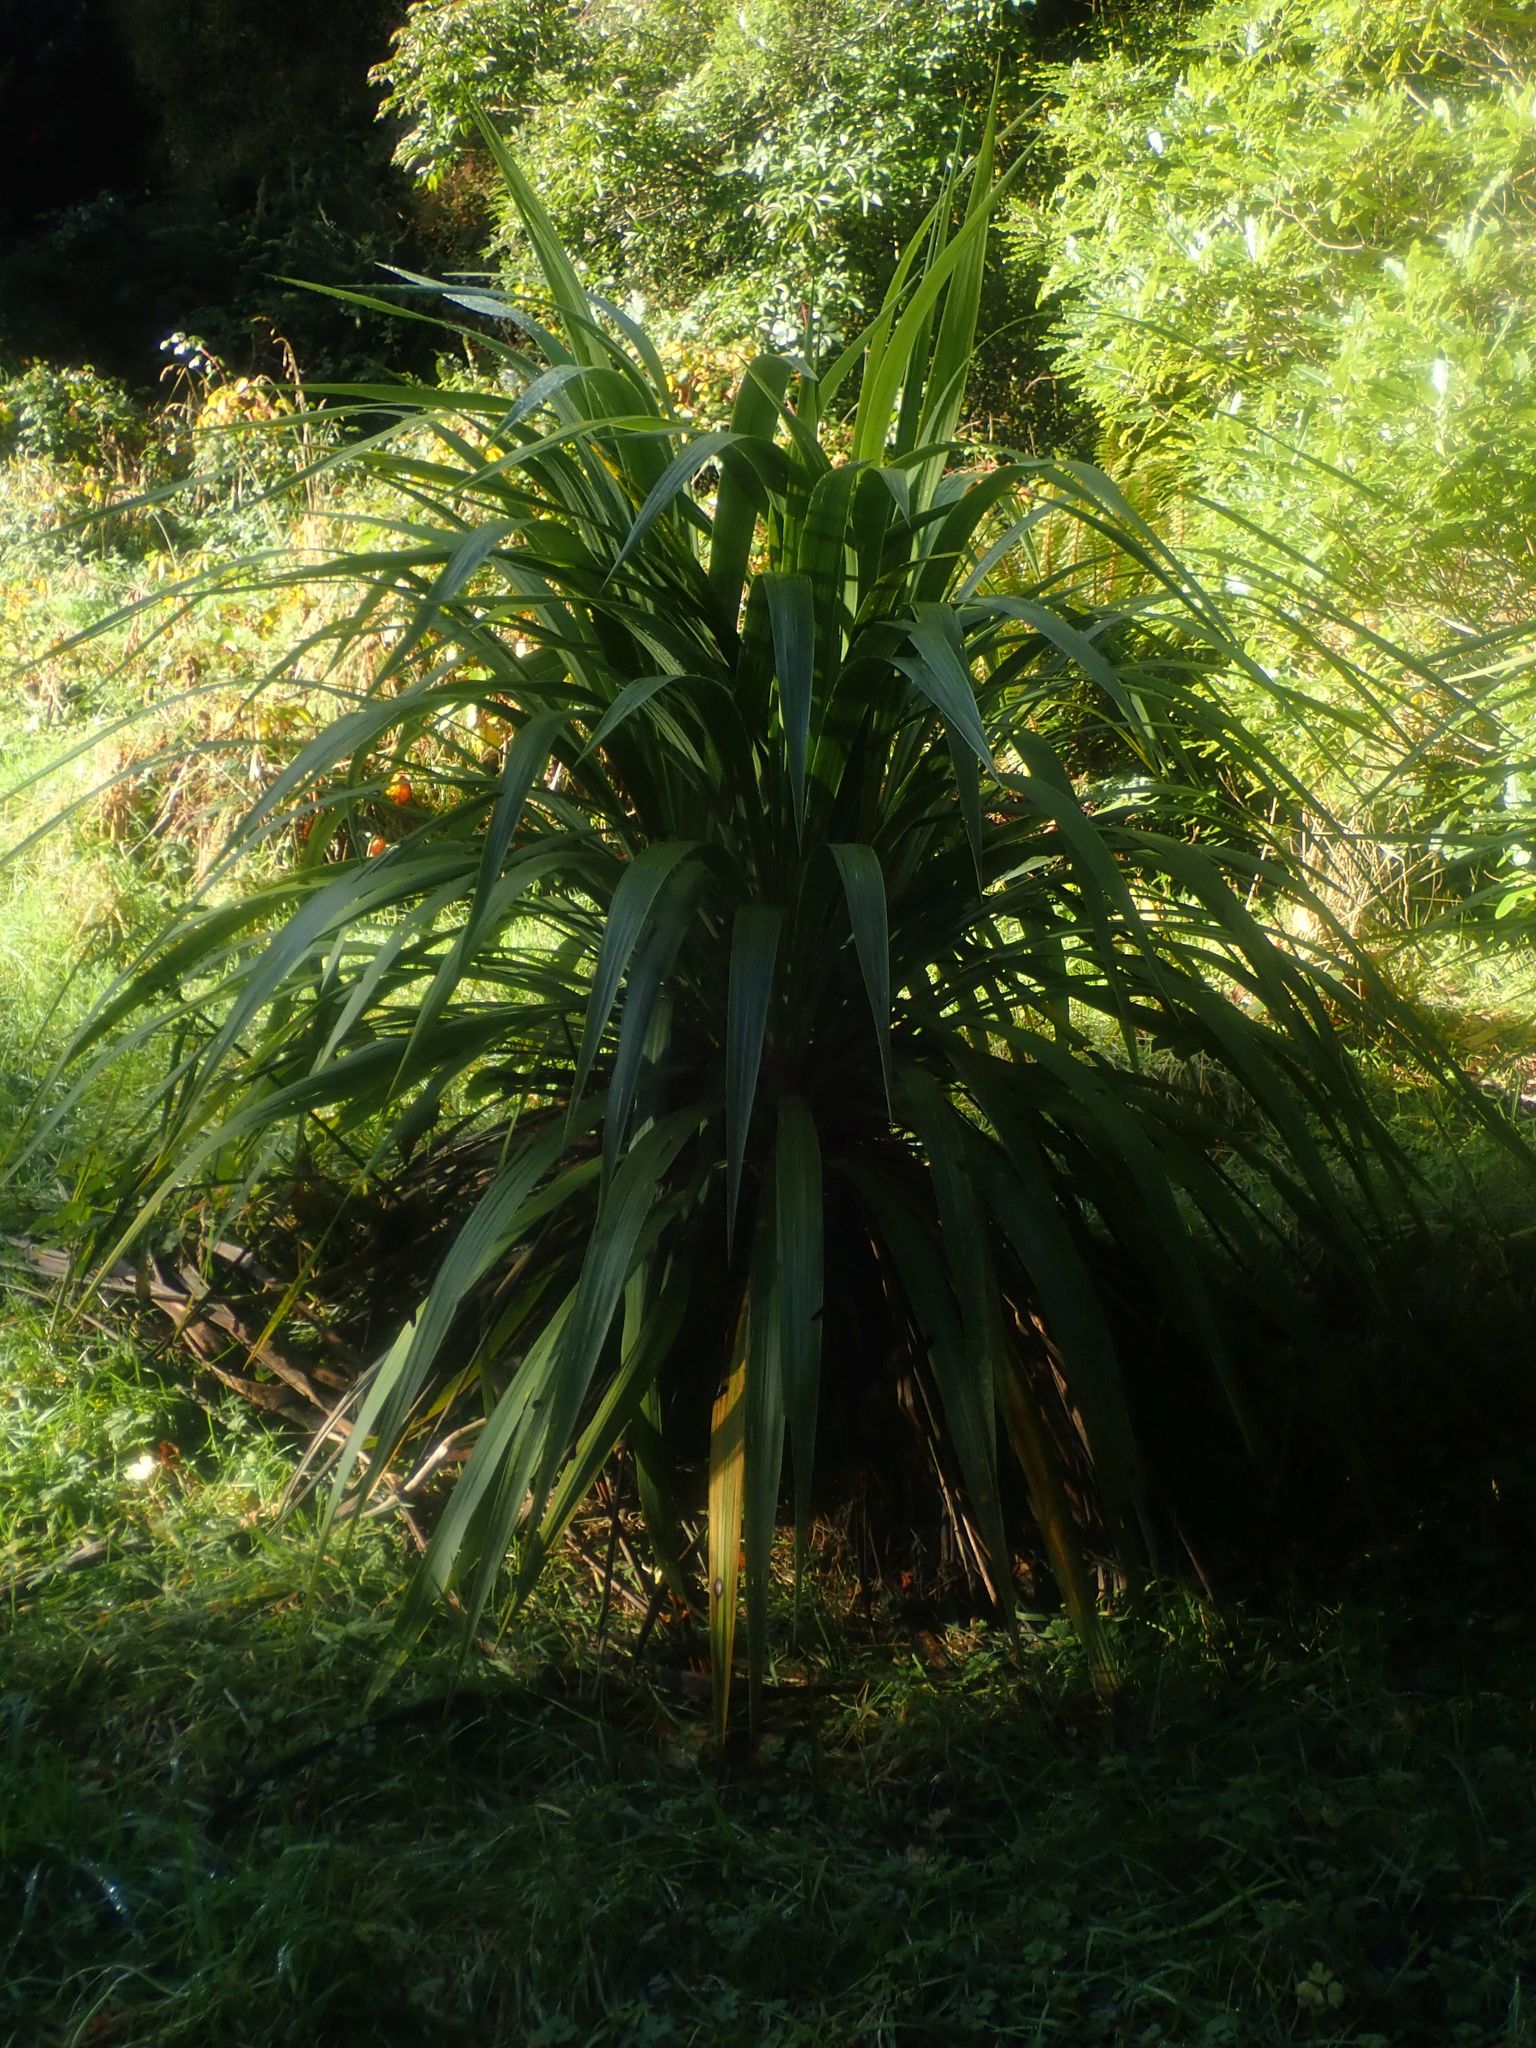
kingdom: Plantae
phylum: Tracheophyta
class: Liliopsida
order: Asparagales
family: Asparagaceae
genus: Cordyline
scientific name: Cordyline australis
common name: Cabbage-palm
